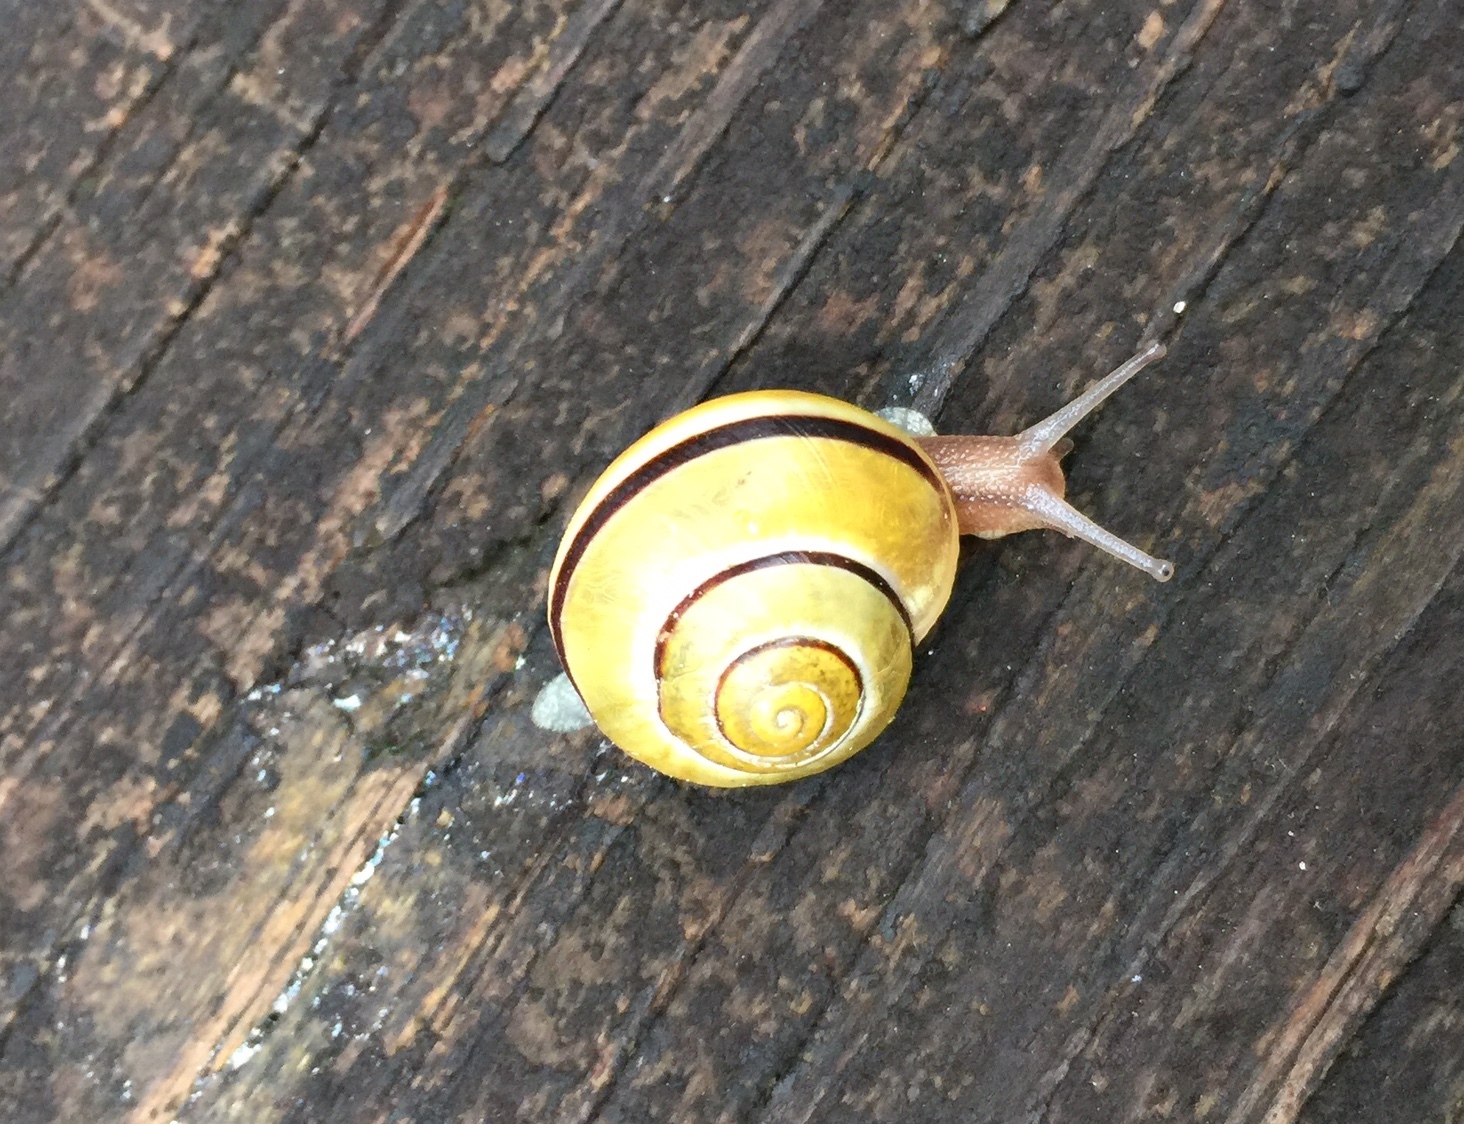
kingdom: Animalia
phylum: Mollusca
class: Gastropoda
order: Stylommatophora
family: Helicidae
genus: Cepaea
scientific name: Cepaea nemoralis
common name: Grovesnail
